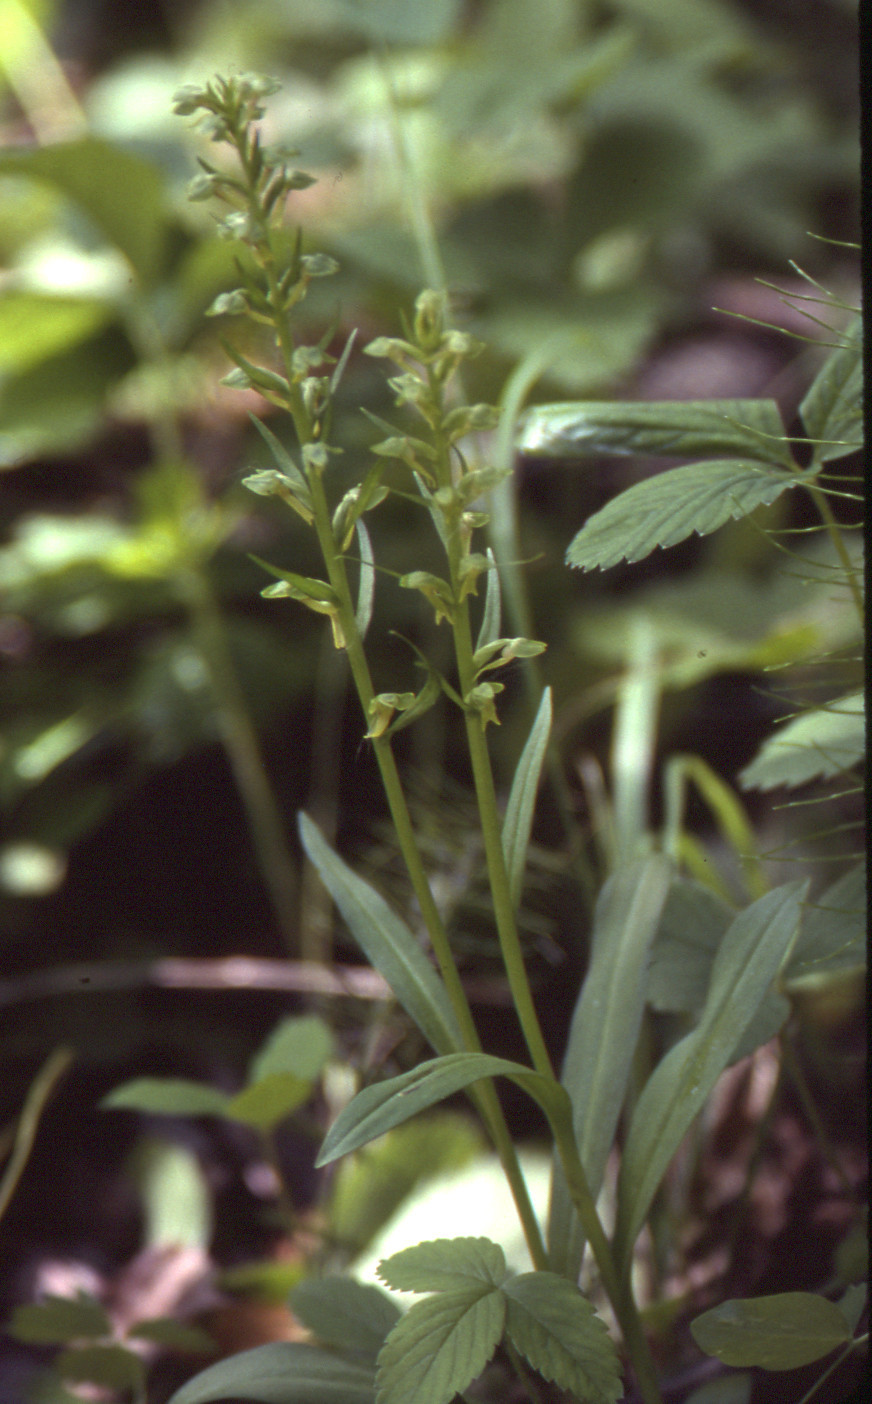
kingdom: Plantae
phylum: Tracheophyta
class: Liliopsida
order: Asparagales
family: Orchidaceae
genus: Dactylorhiza
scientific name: Dactylorhiza viridis
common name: Longbract frog orchid
